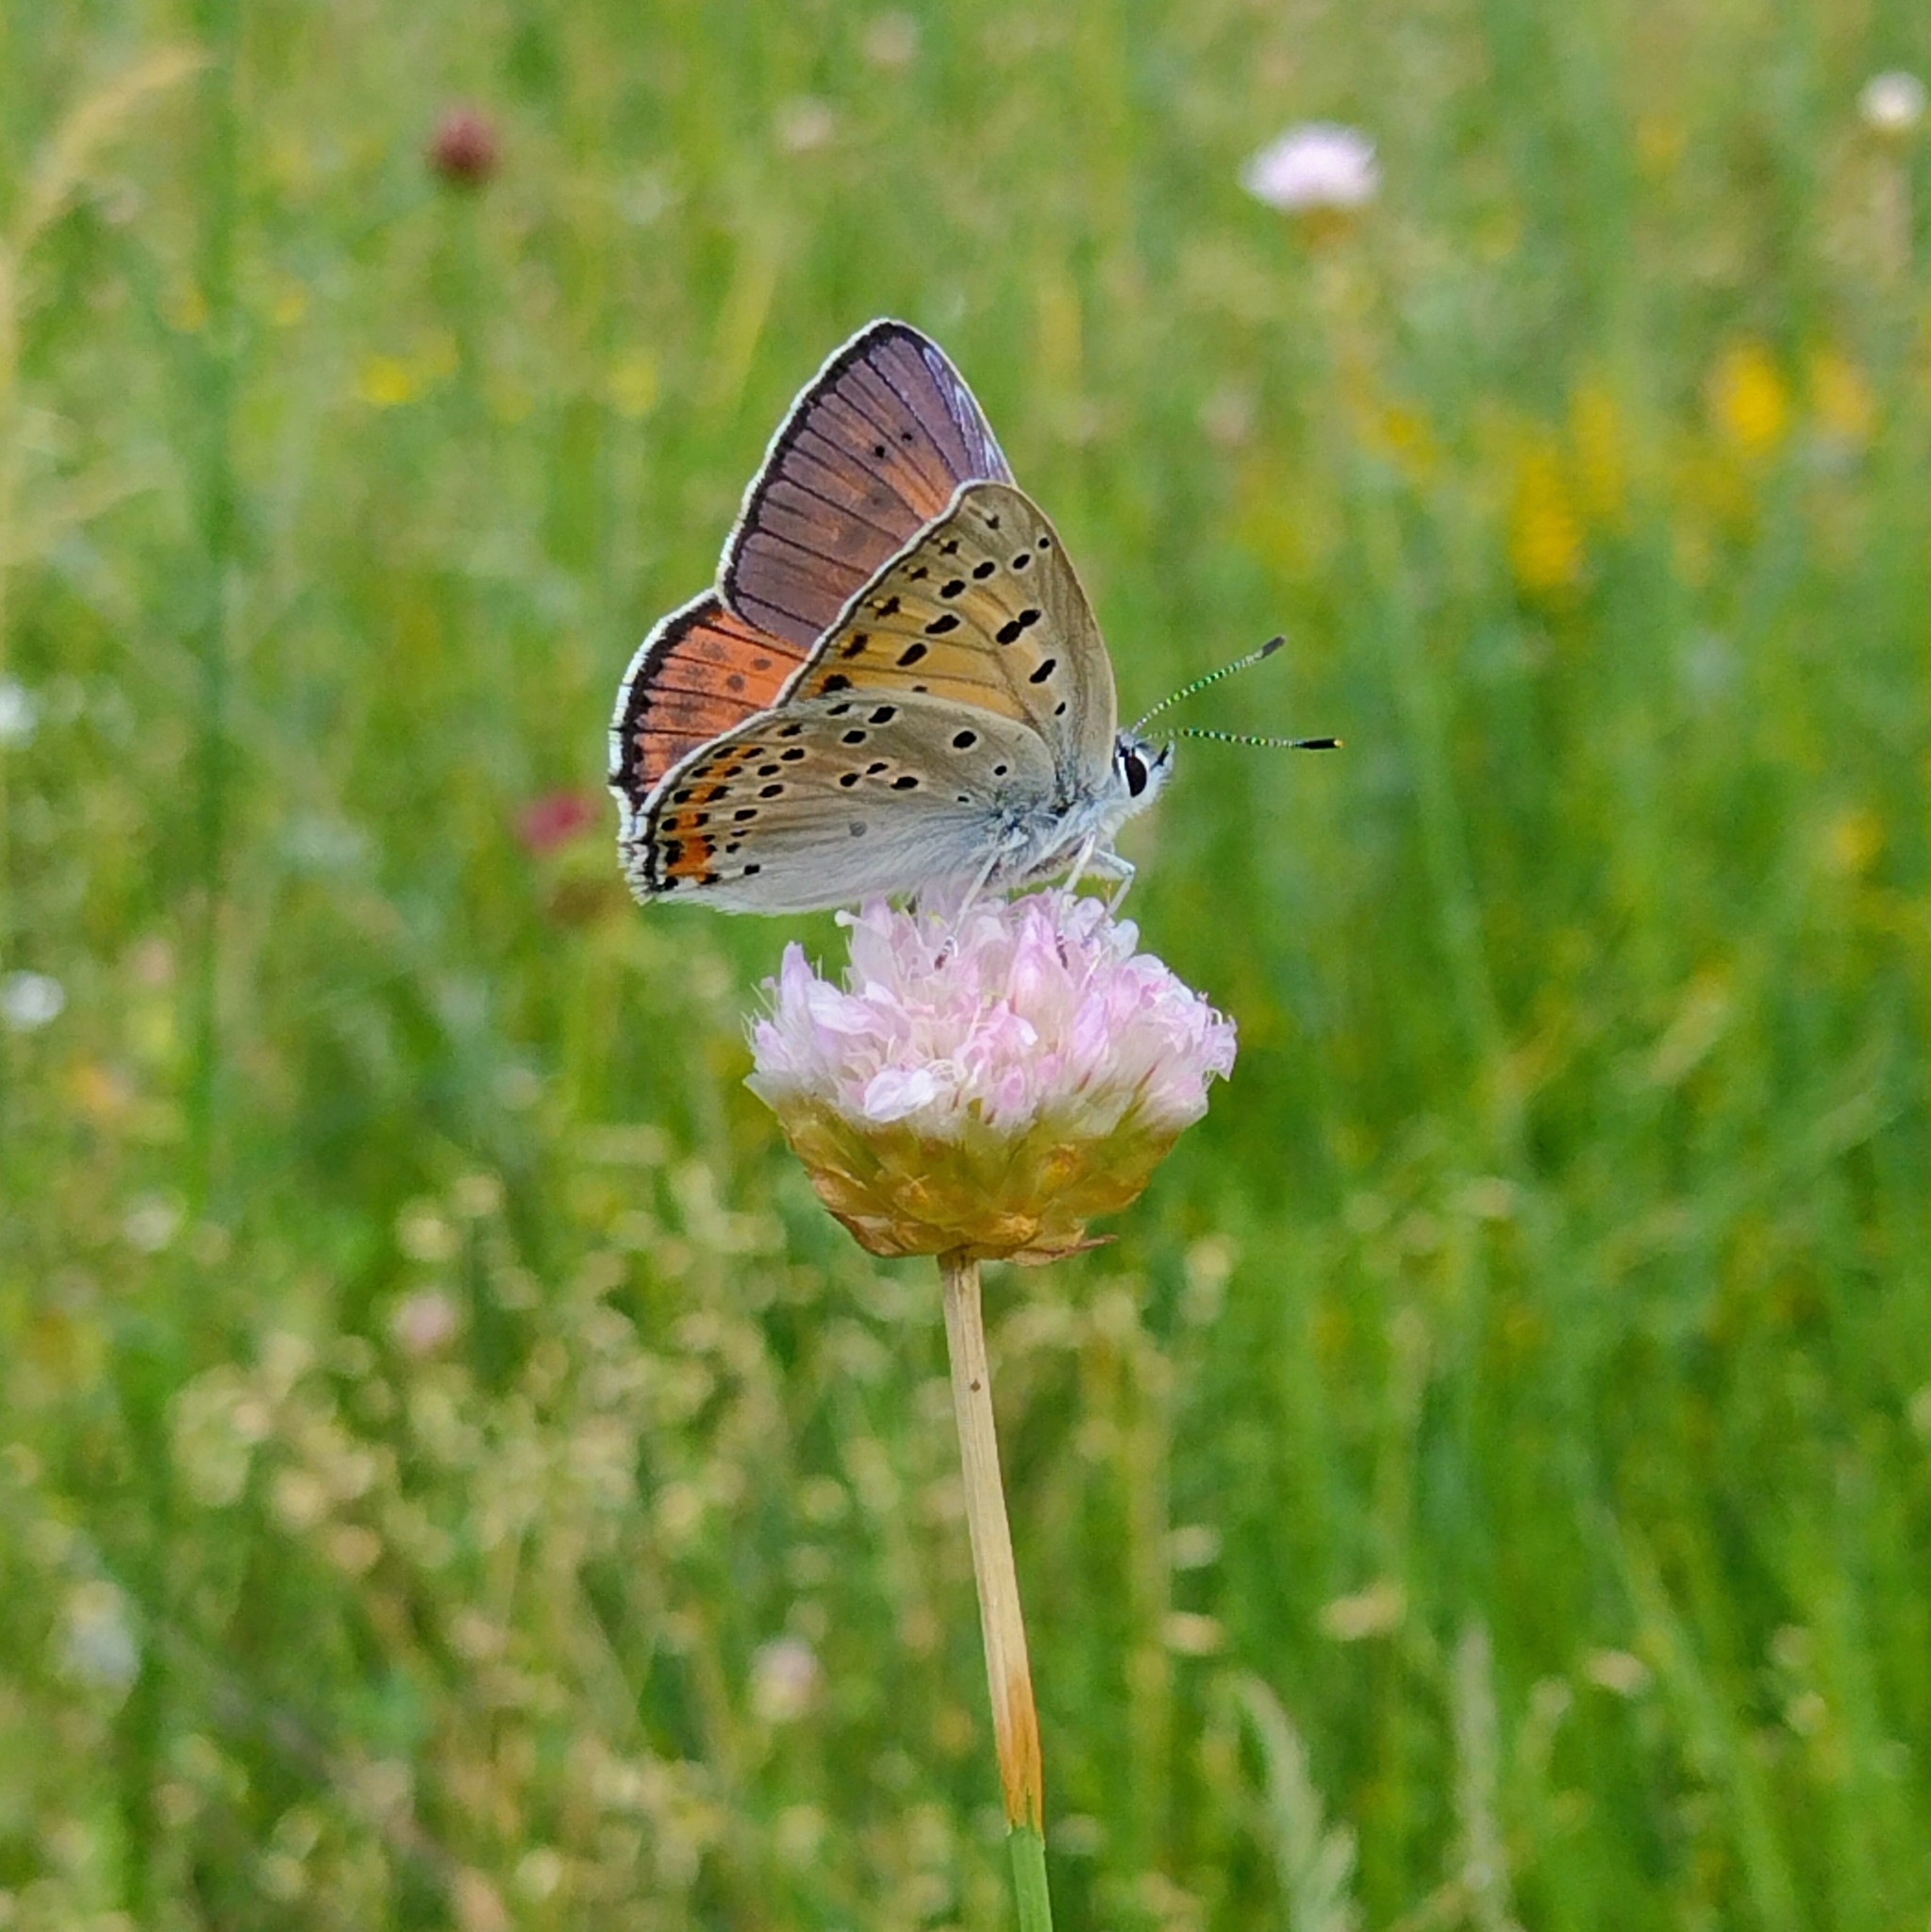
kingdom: Animalia
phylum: Arthropoda
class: Insecta
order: Lepidoptera
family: Lycaenidae
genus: Lycaena
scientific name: Lycaena alciphron
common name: Purple-shot copper
